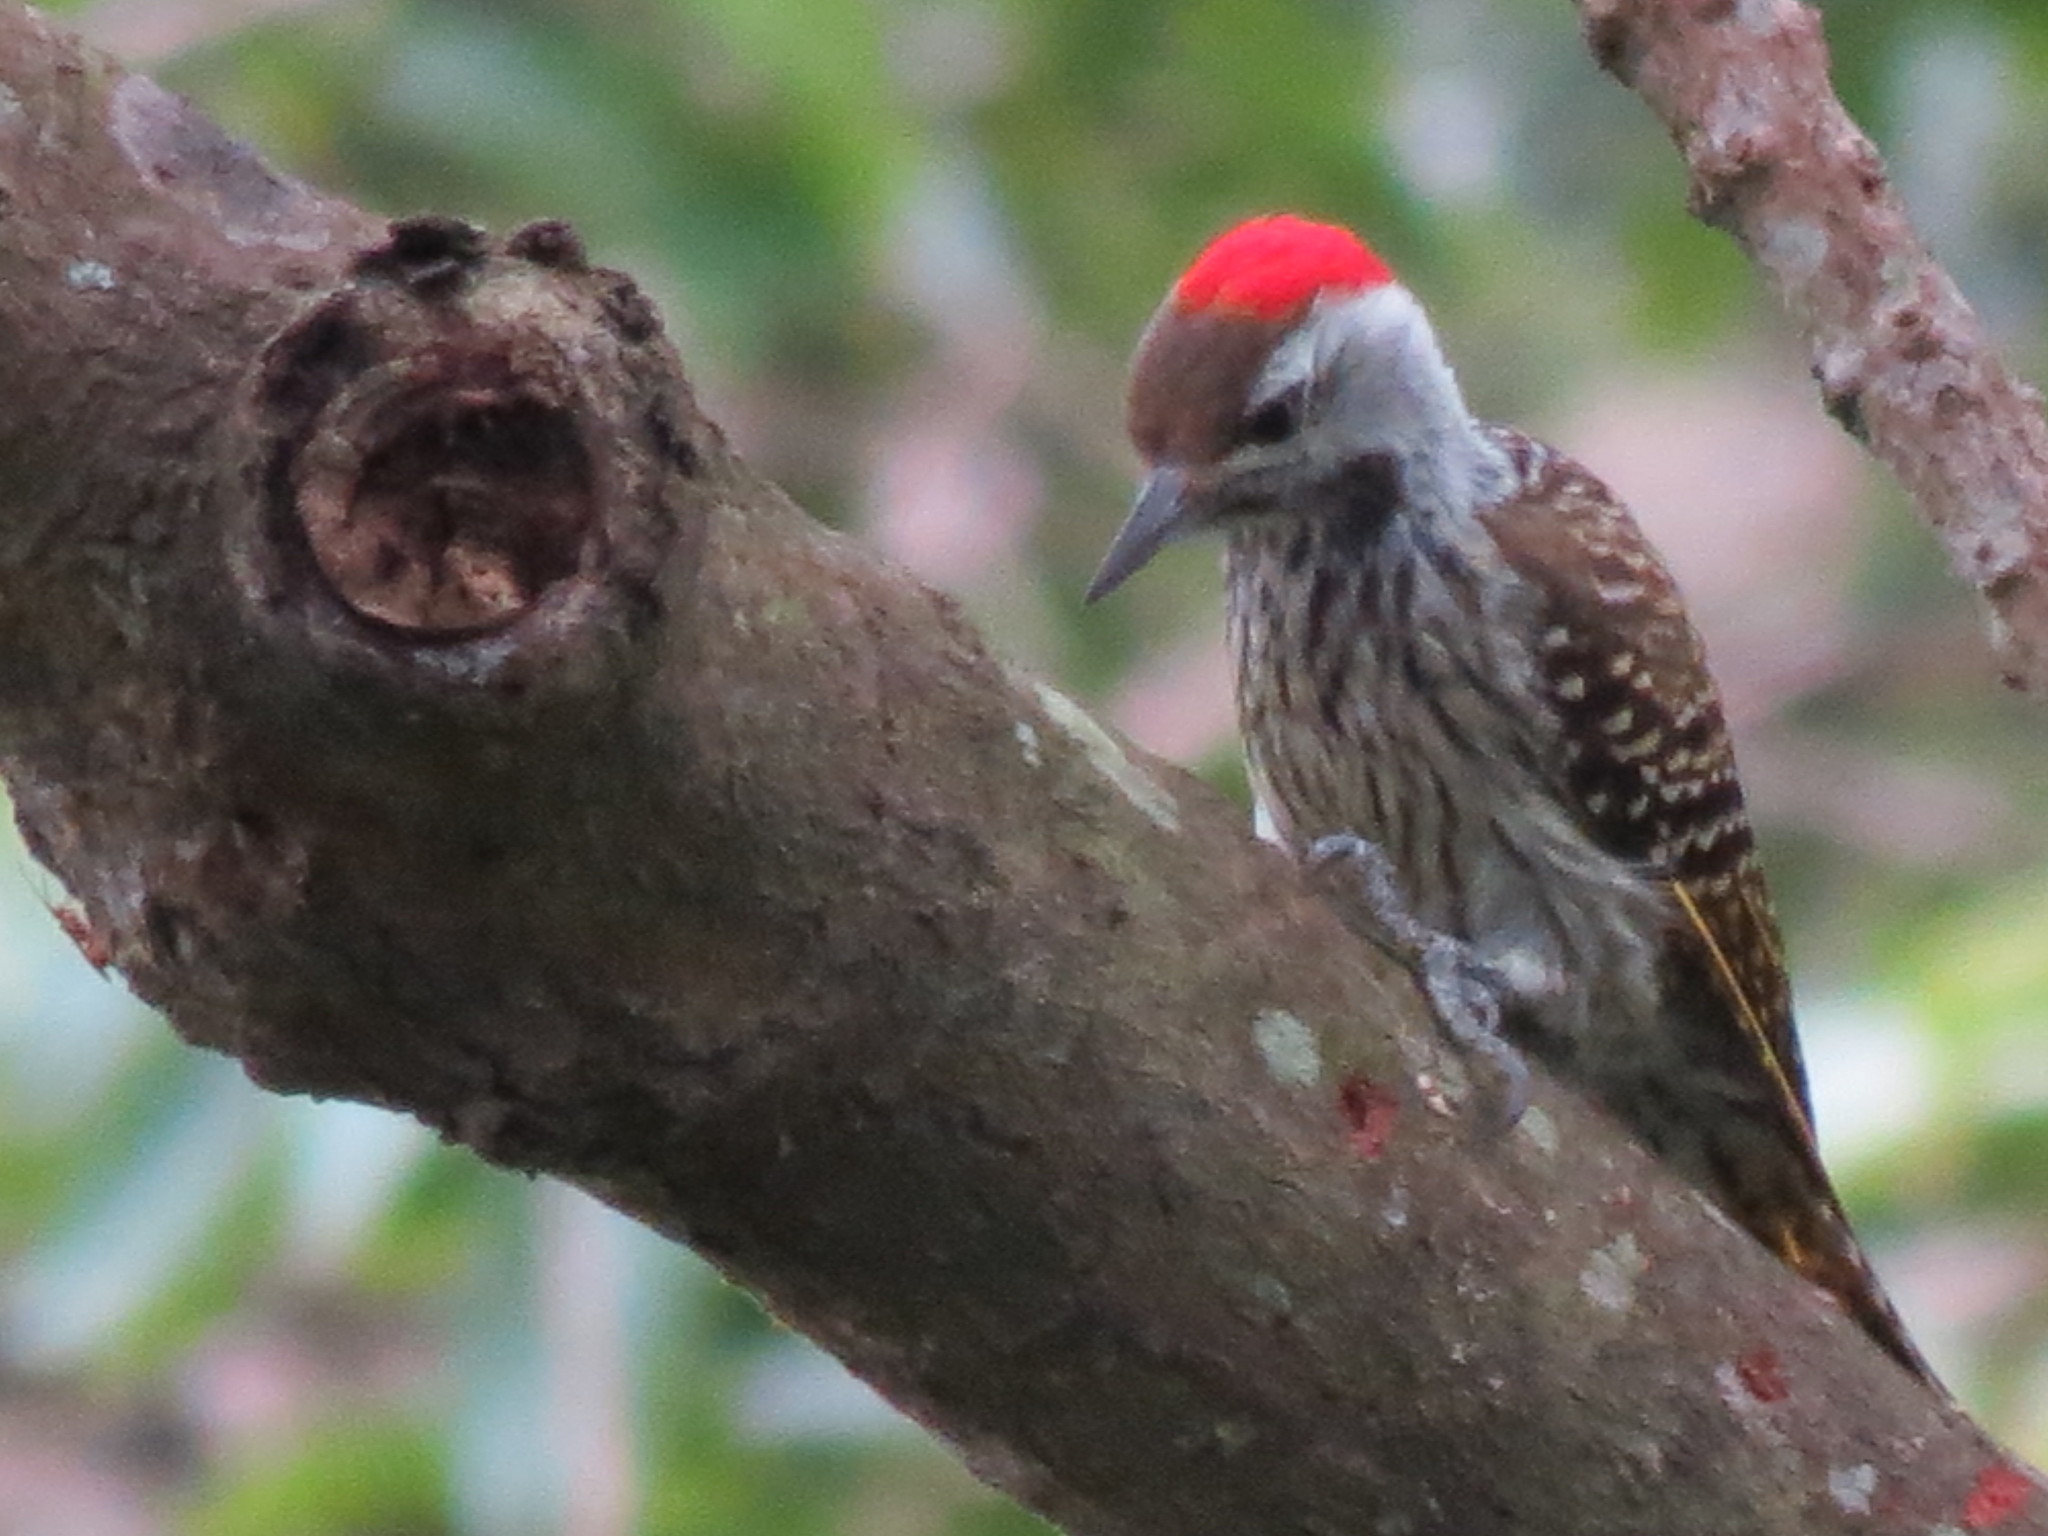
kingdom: Animalia
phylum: Chordata
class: Aves
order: Piciformes
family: Picidae
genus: Dendropicos
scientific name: Dendropicos fuscescens
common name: Cardinal woodpecker
